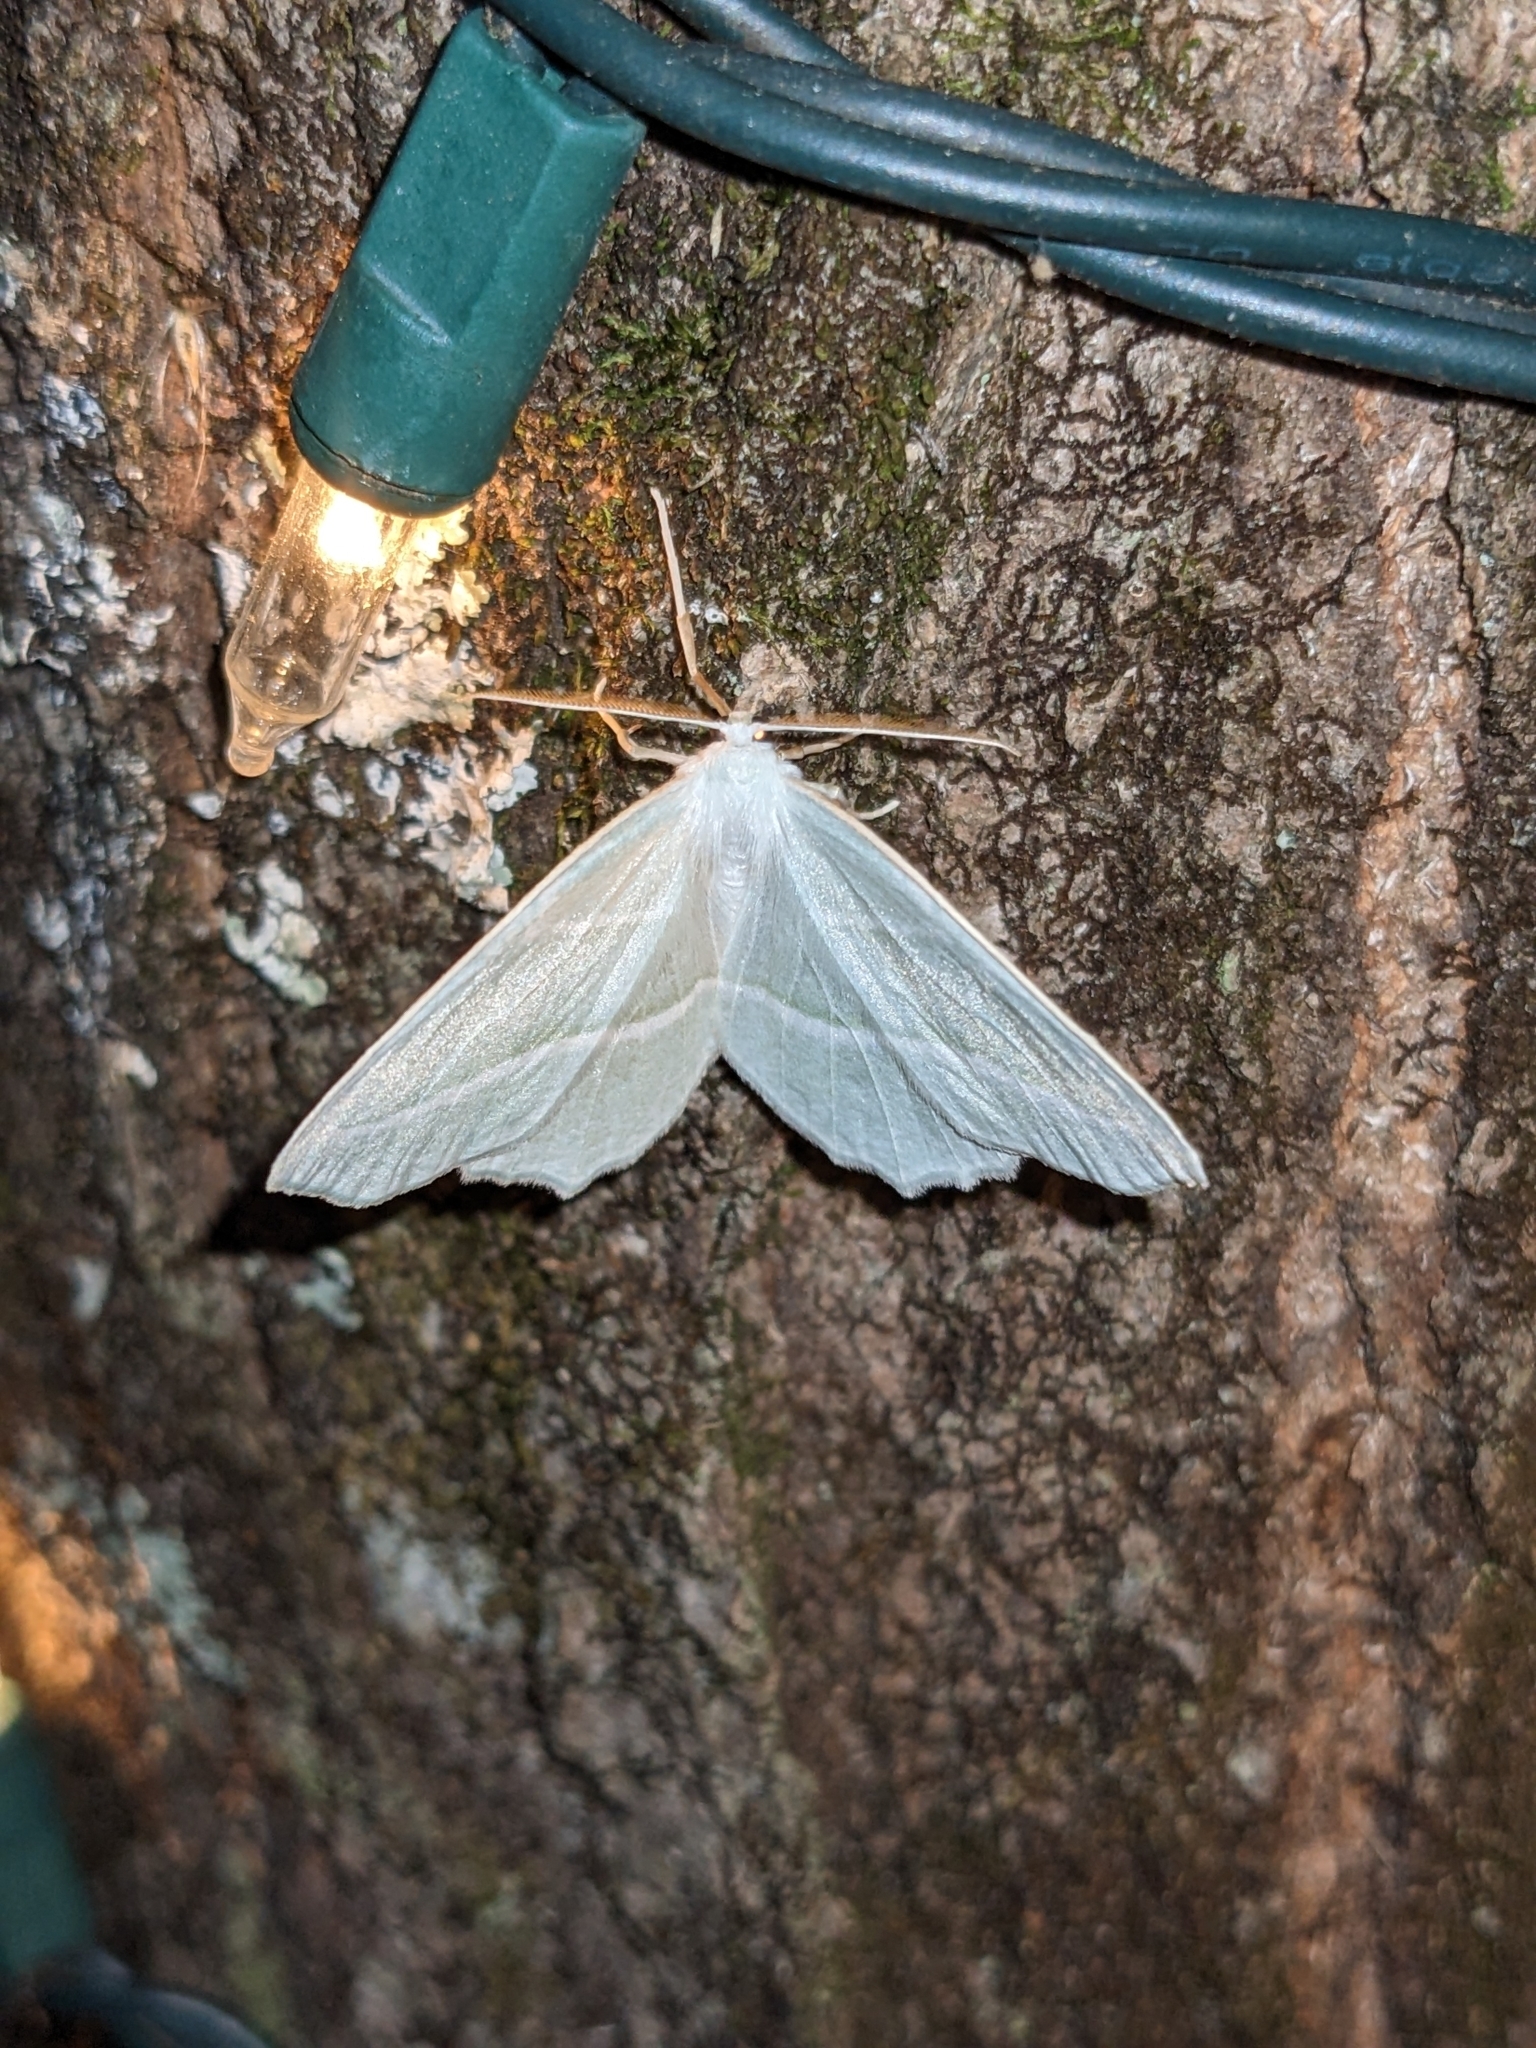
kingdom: Animalia
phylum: Arthropoda
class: Insecta
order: Lepidoptera
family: Geometridae
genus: Campaea
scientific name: Campaea perlata
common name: Fringed looper
